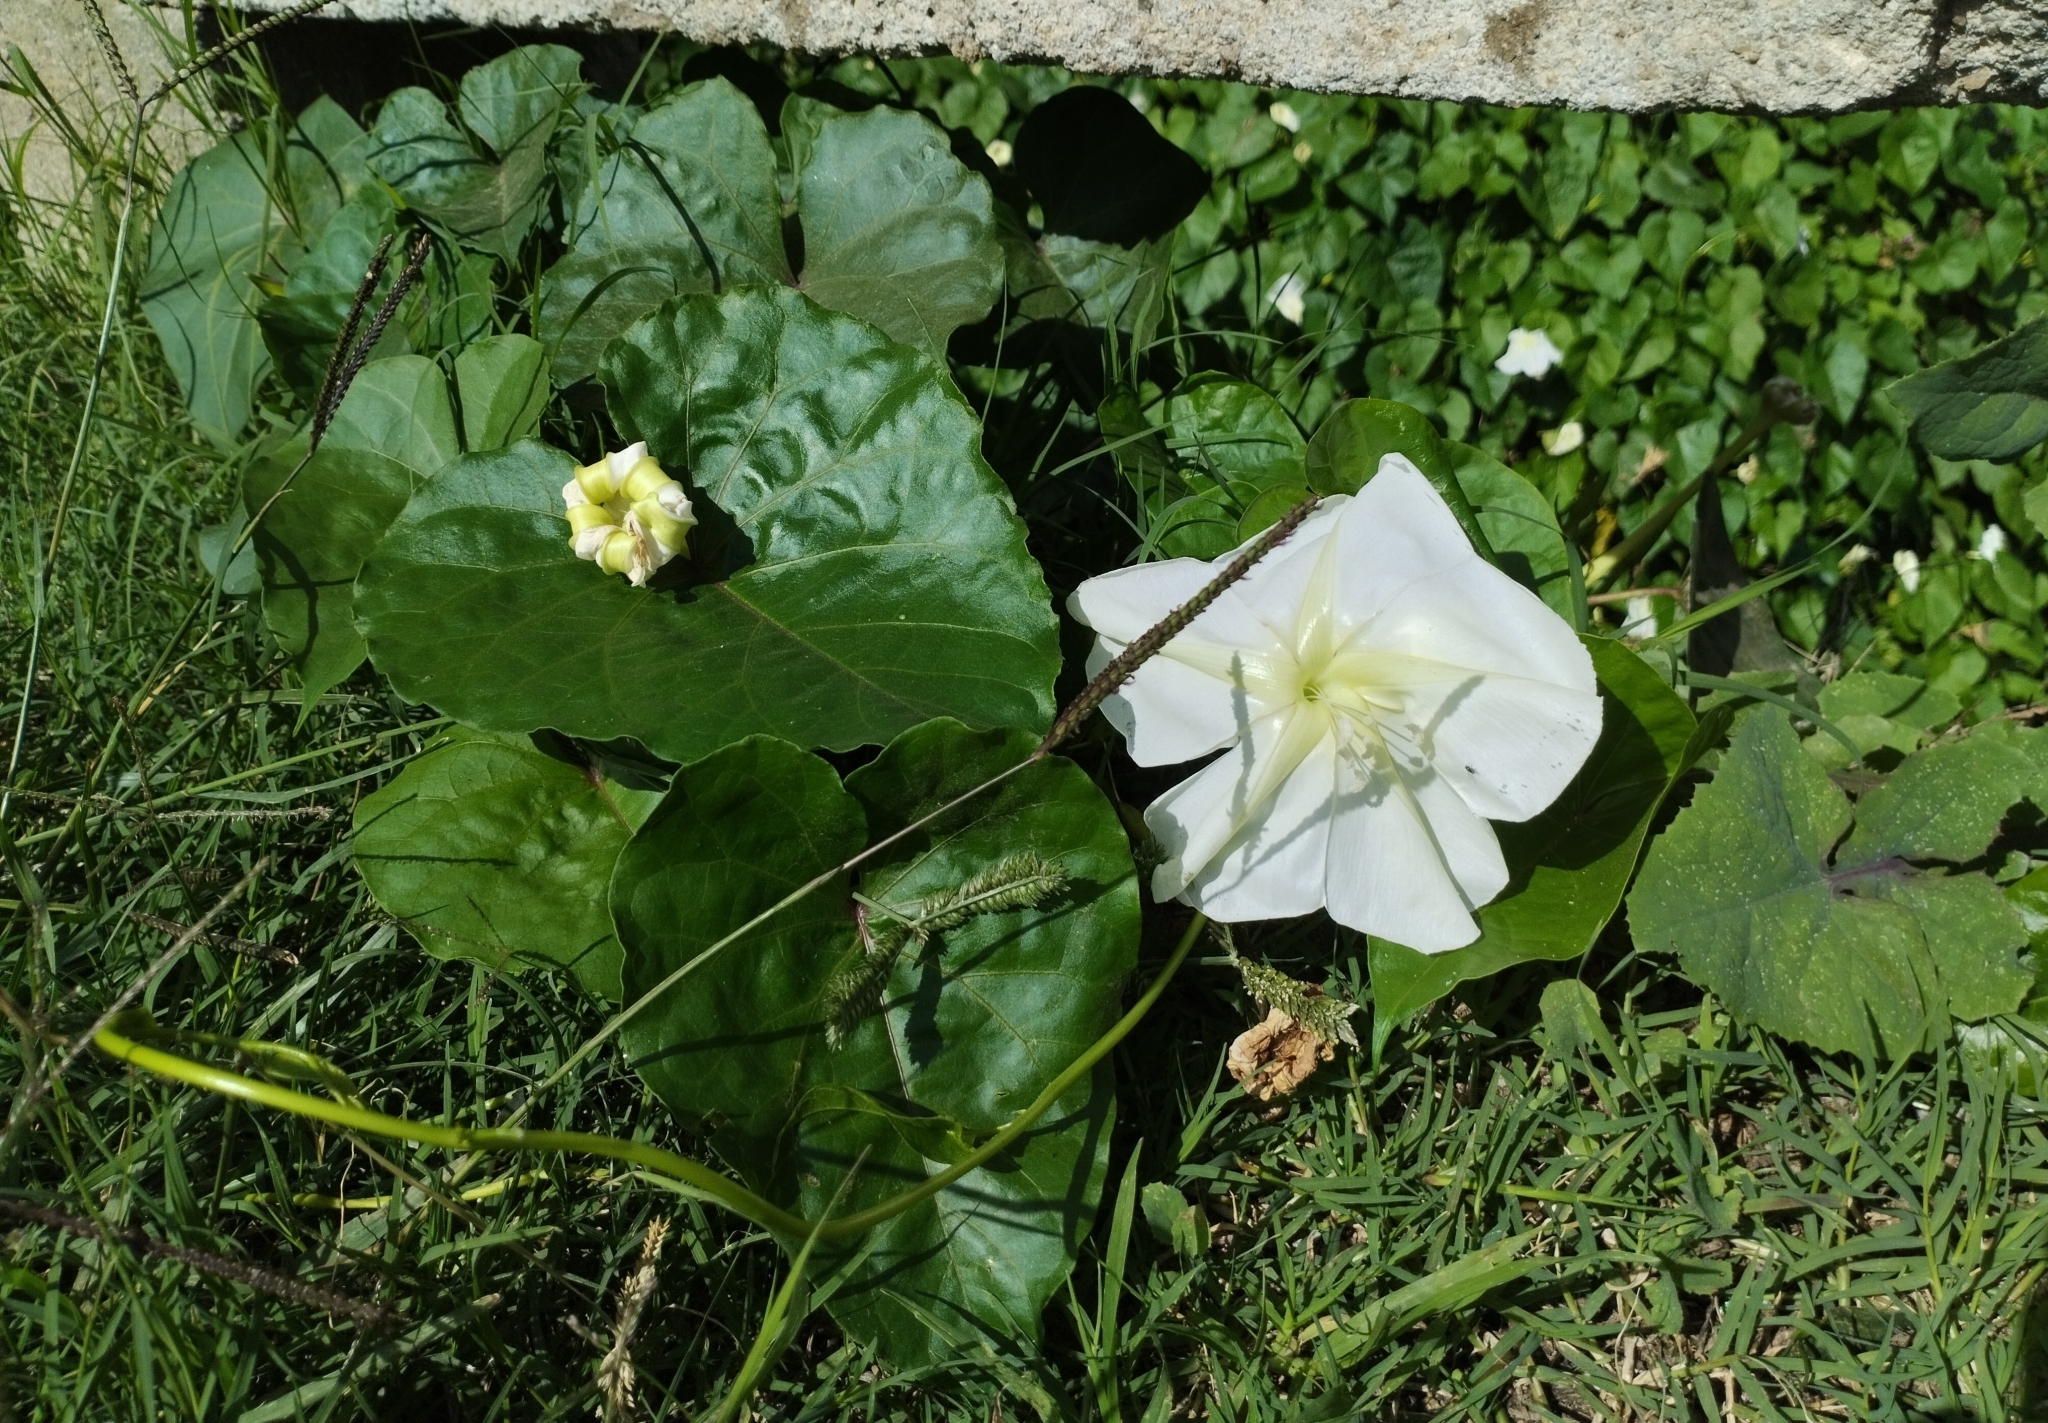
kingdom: Plantae
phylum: Tracheophyta
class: Magnoliopsida
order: Solanales
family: Convolvulaceae
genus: Ipomoea
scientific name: Ipomoea alba
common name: Moonflower
